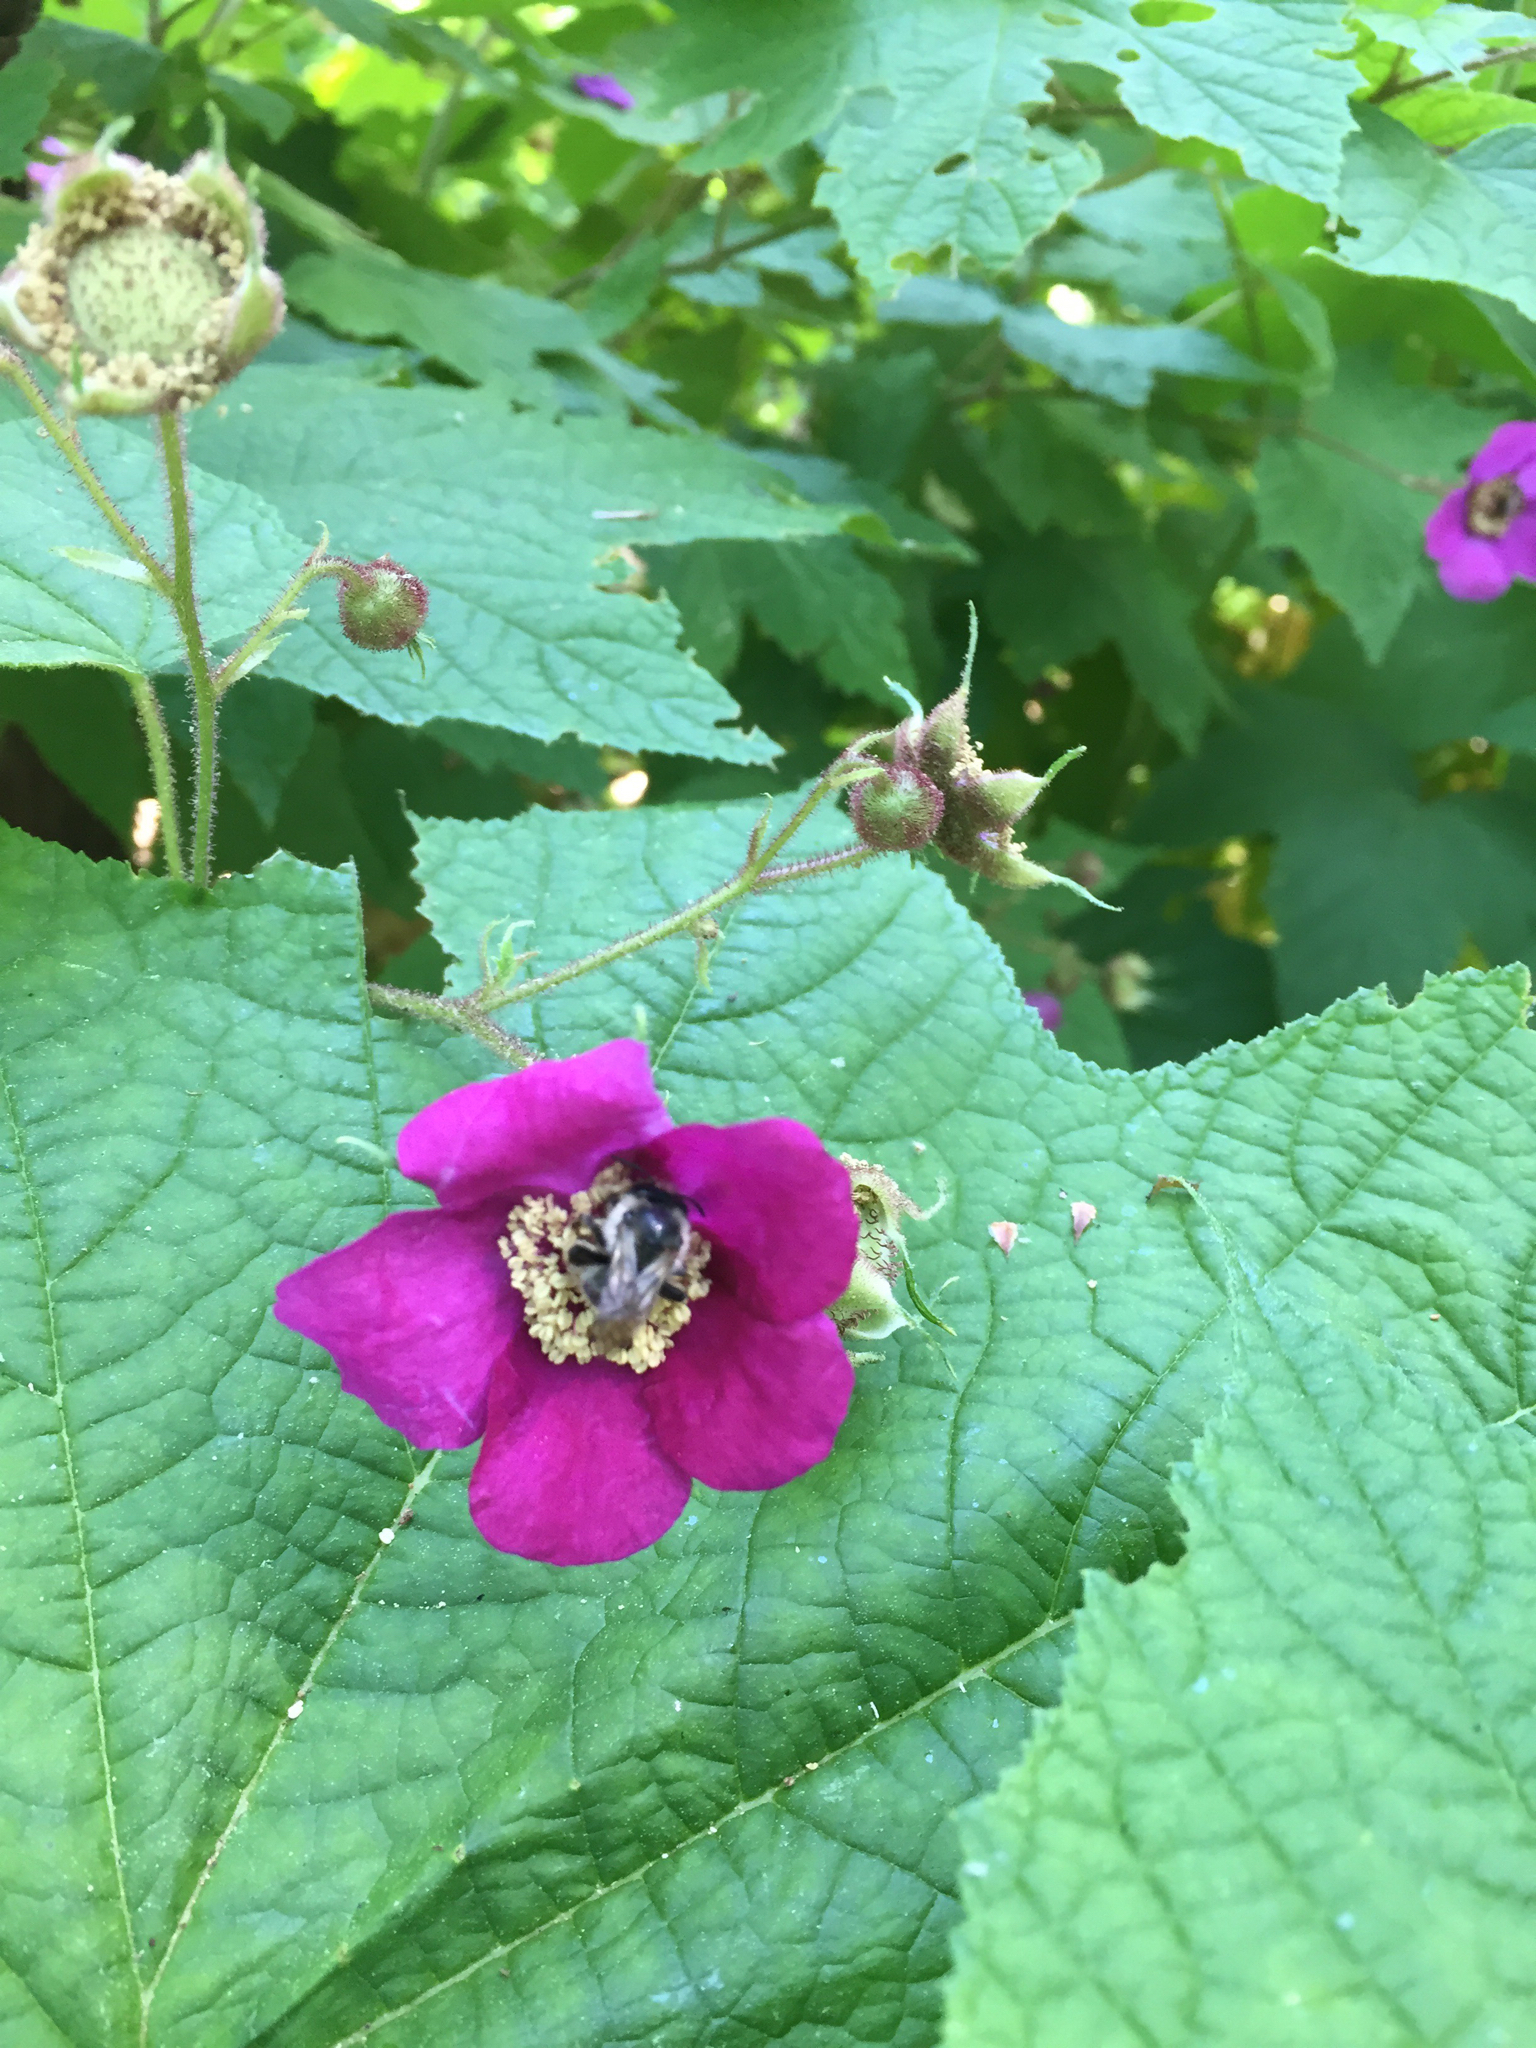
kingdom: Plantae
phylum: Tracheophyta
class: Magnoliopsida
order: Rosales
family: Rosaceae
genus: Rubus
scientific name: Rubus odoratus
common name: Purple-flowered raspberry
